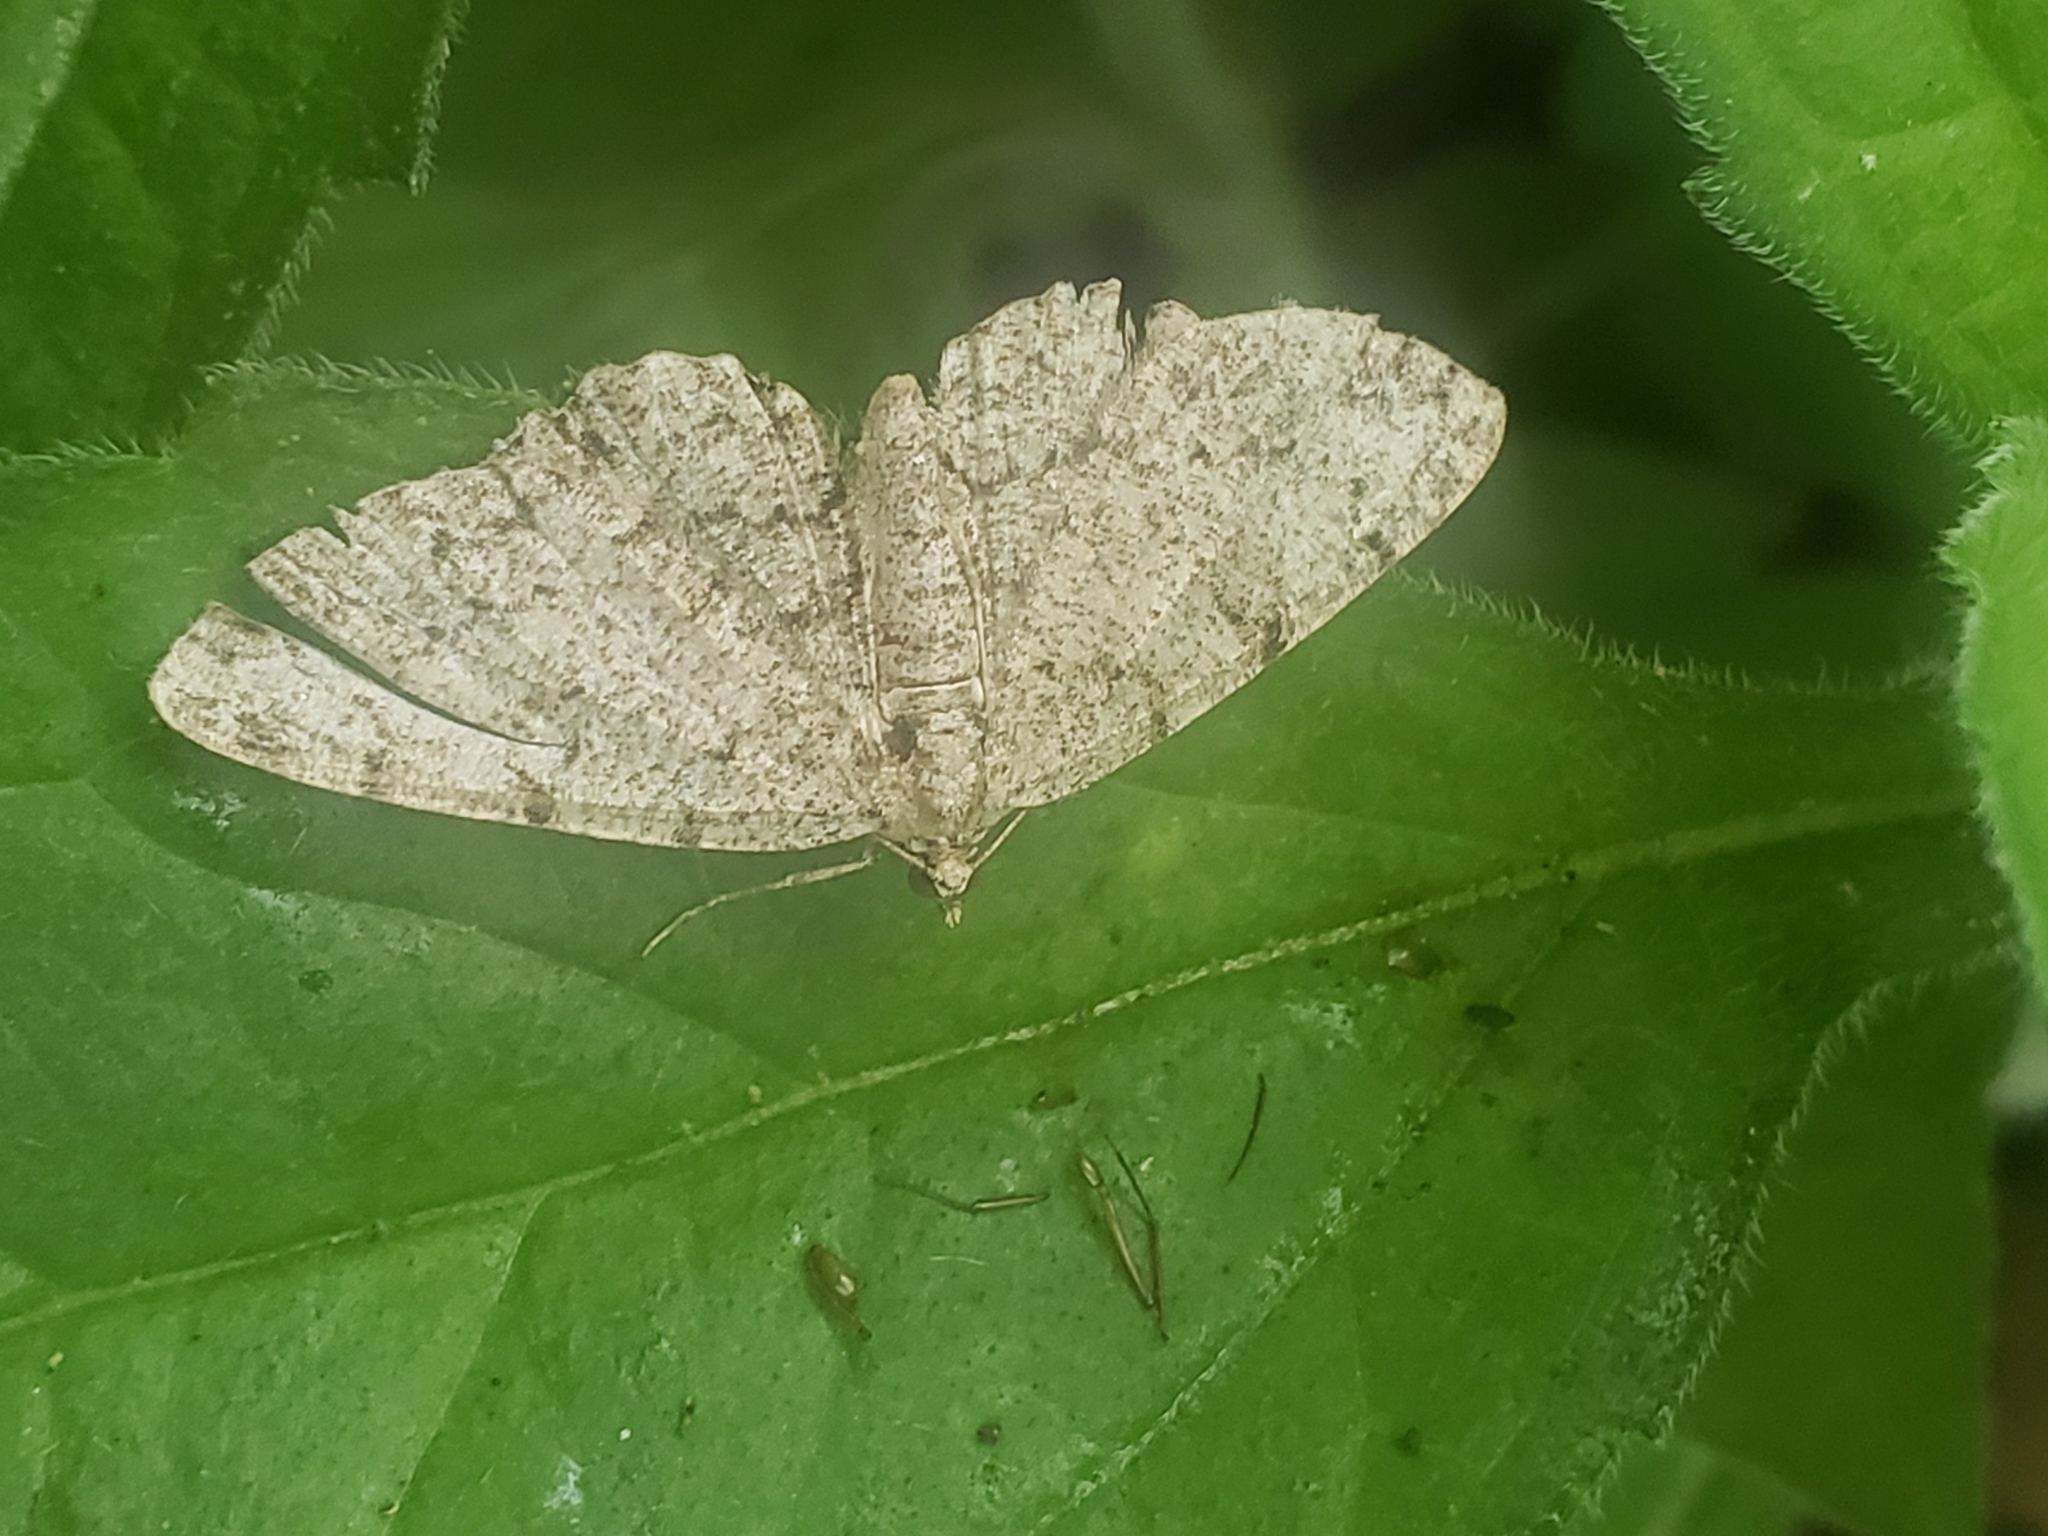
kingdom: Animalia
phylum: Arthropoda
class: Insecta
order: Lepidoptera
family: Geometridae
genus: Protoboarmia
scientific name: Protoboarmia porcelaria
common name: Porcelain gray
